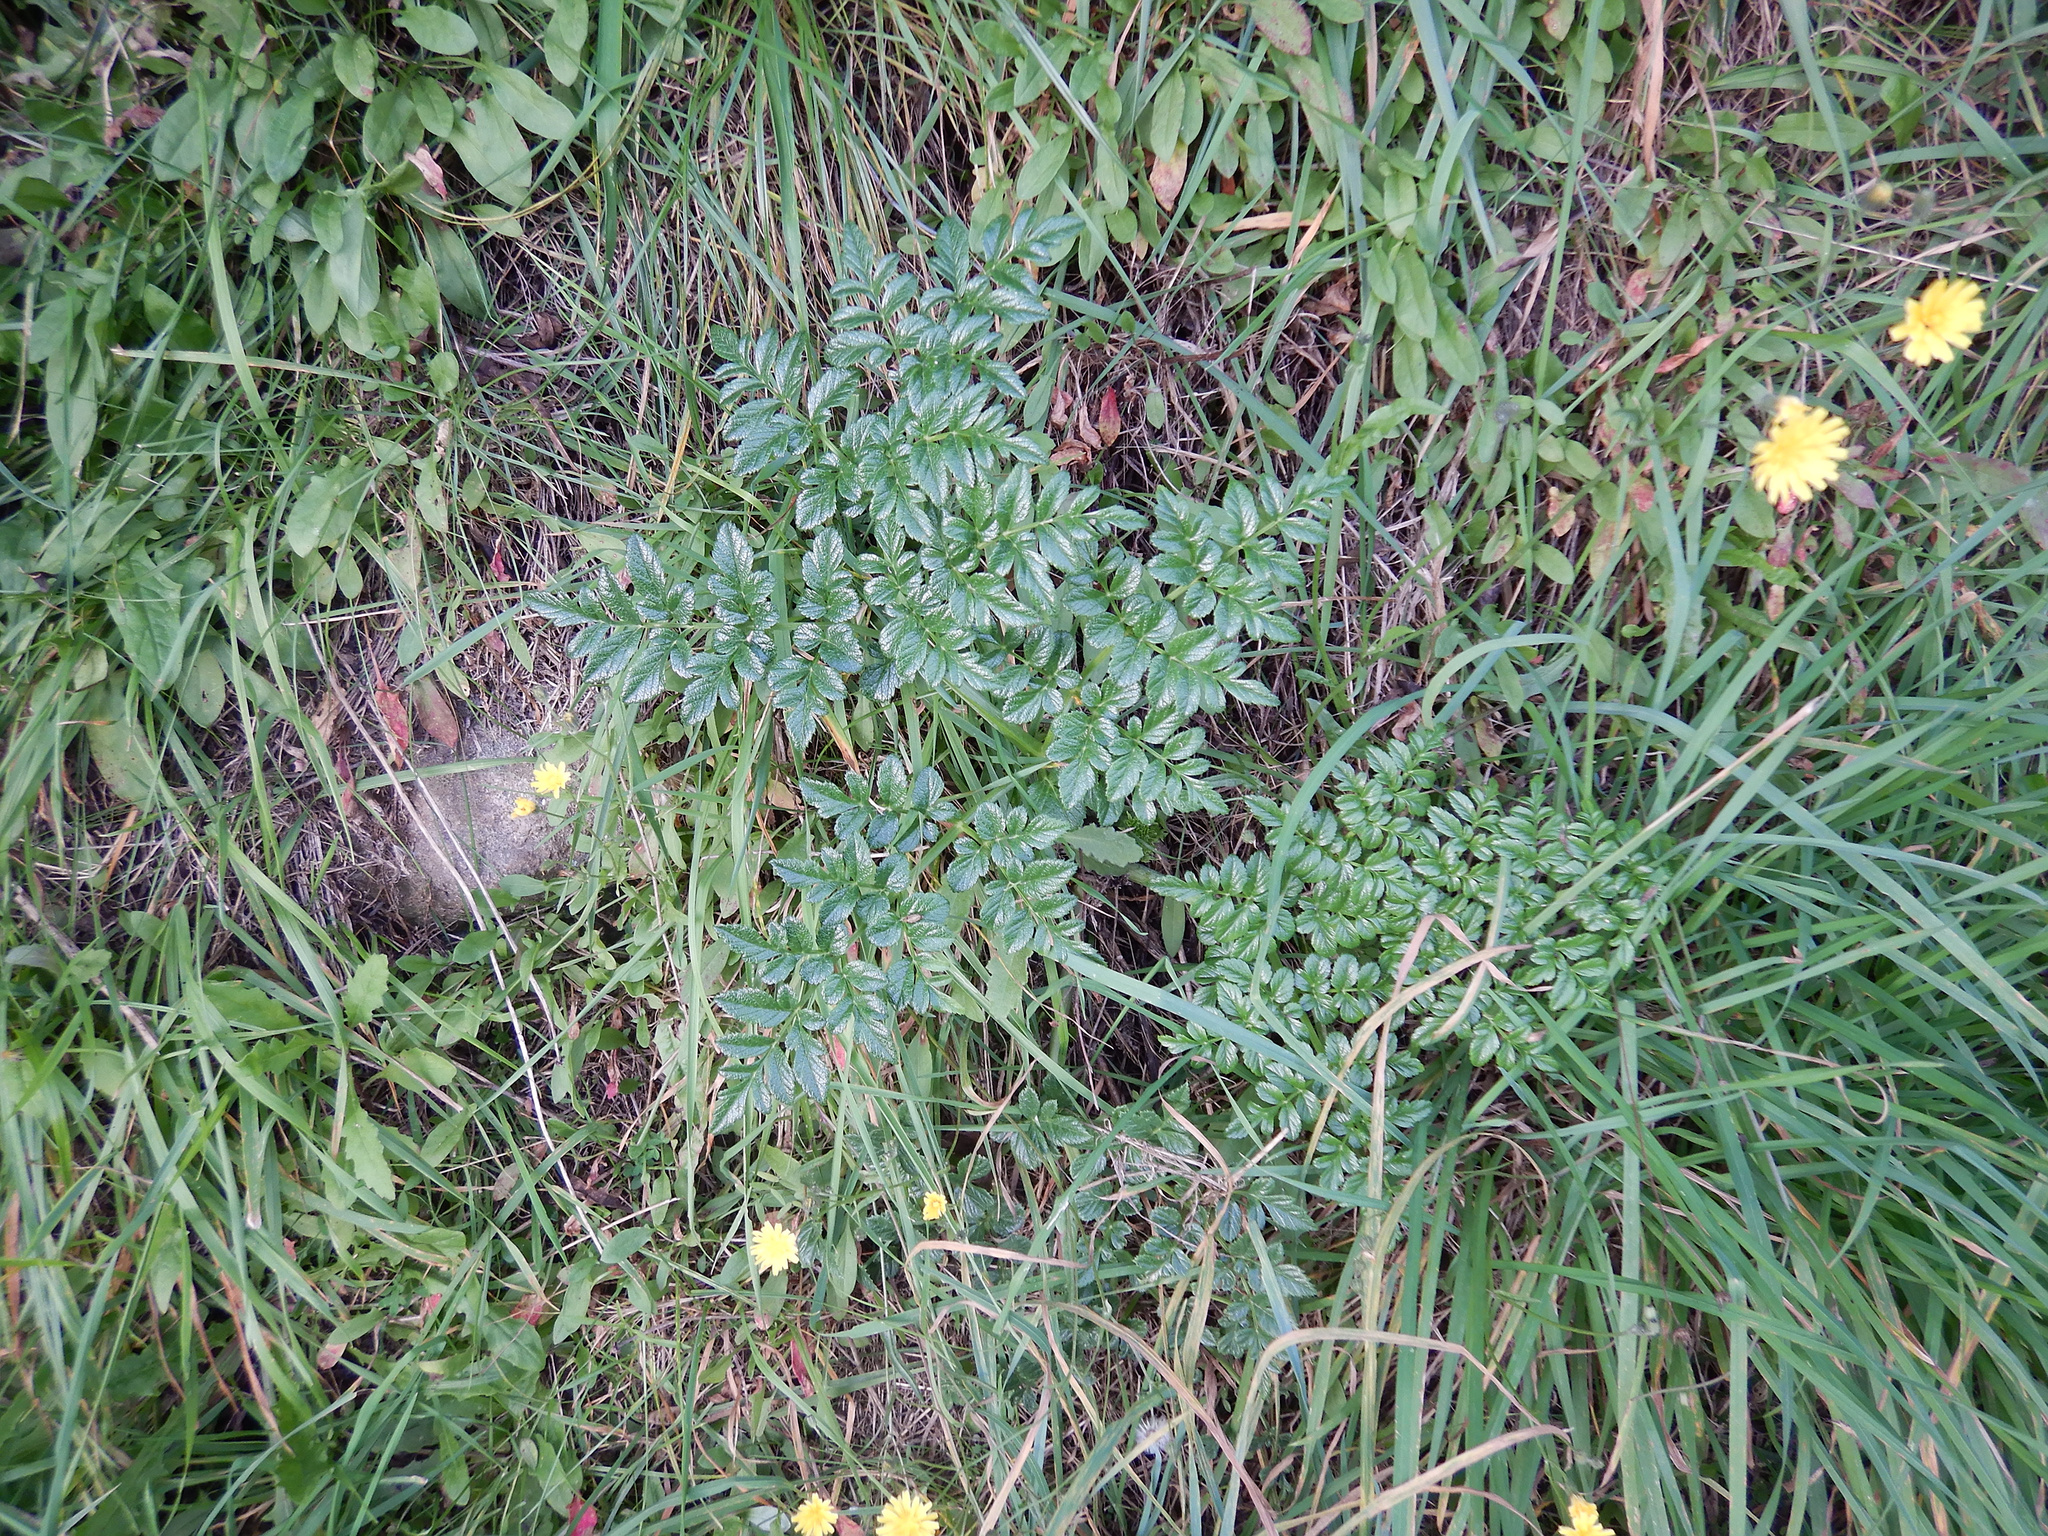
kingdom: Plantae
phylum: Tracheophyta
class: Magnoliopsida
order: Apiales
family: Apiaceae
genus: Angelica
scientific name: Angelica pachycarpa
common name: Portuguese angelica
